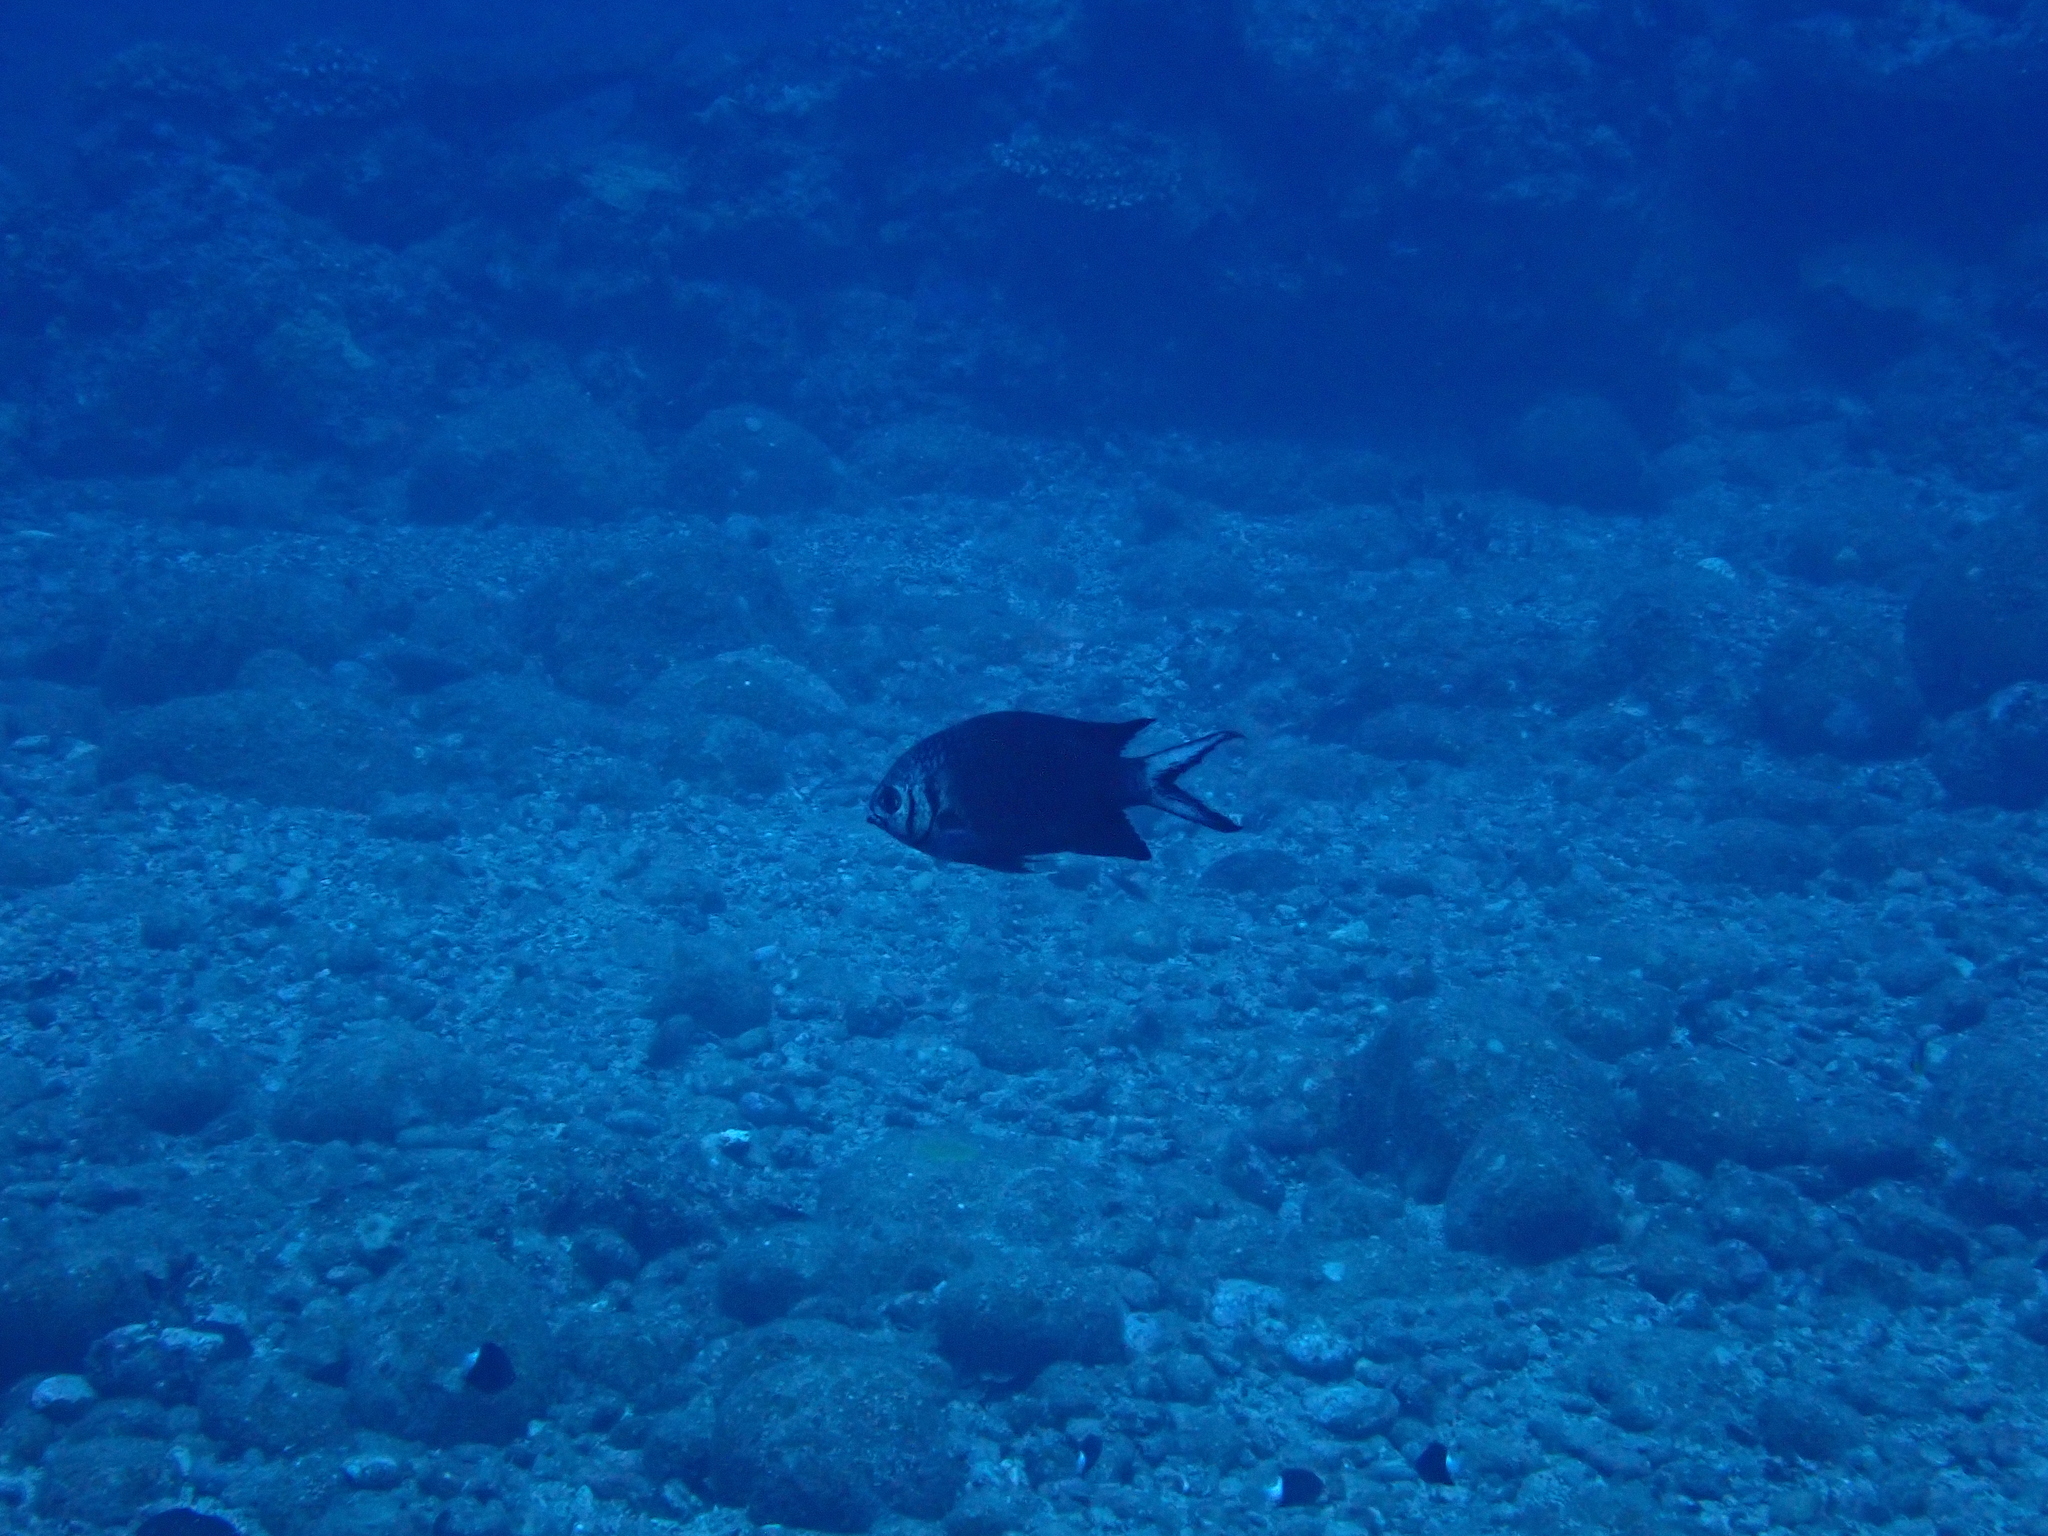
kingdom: Animalia
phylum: Chordata
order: Perciformes
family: Pomacentridae
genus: Chromis
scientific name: Chromis xanthura
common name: Black chromis
